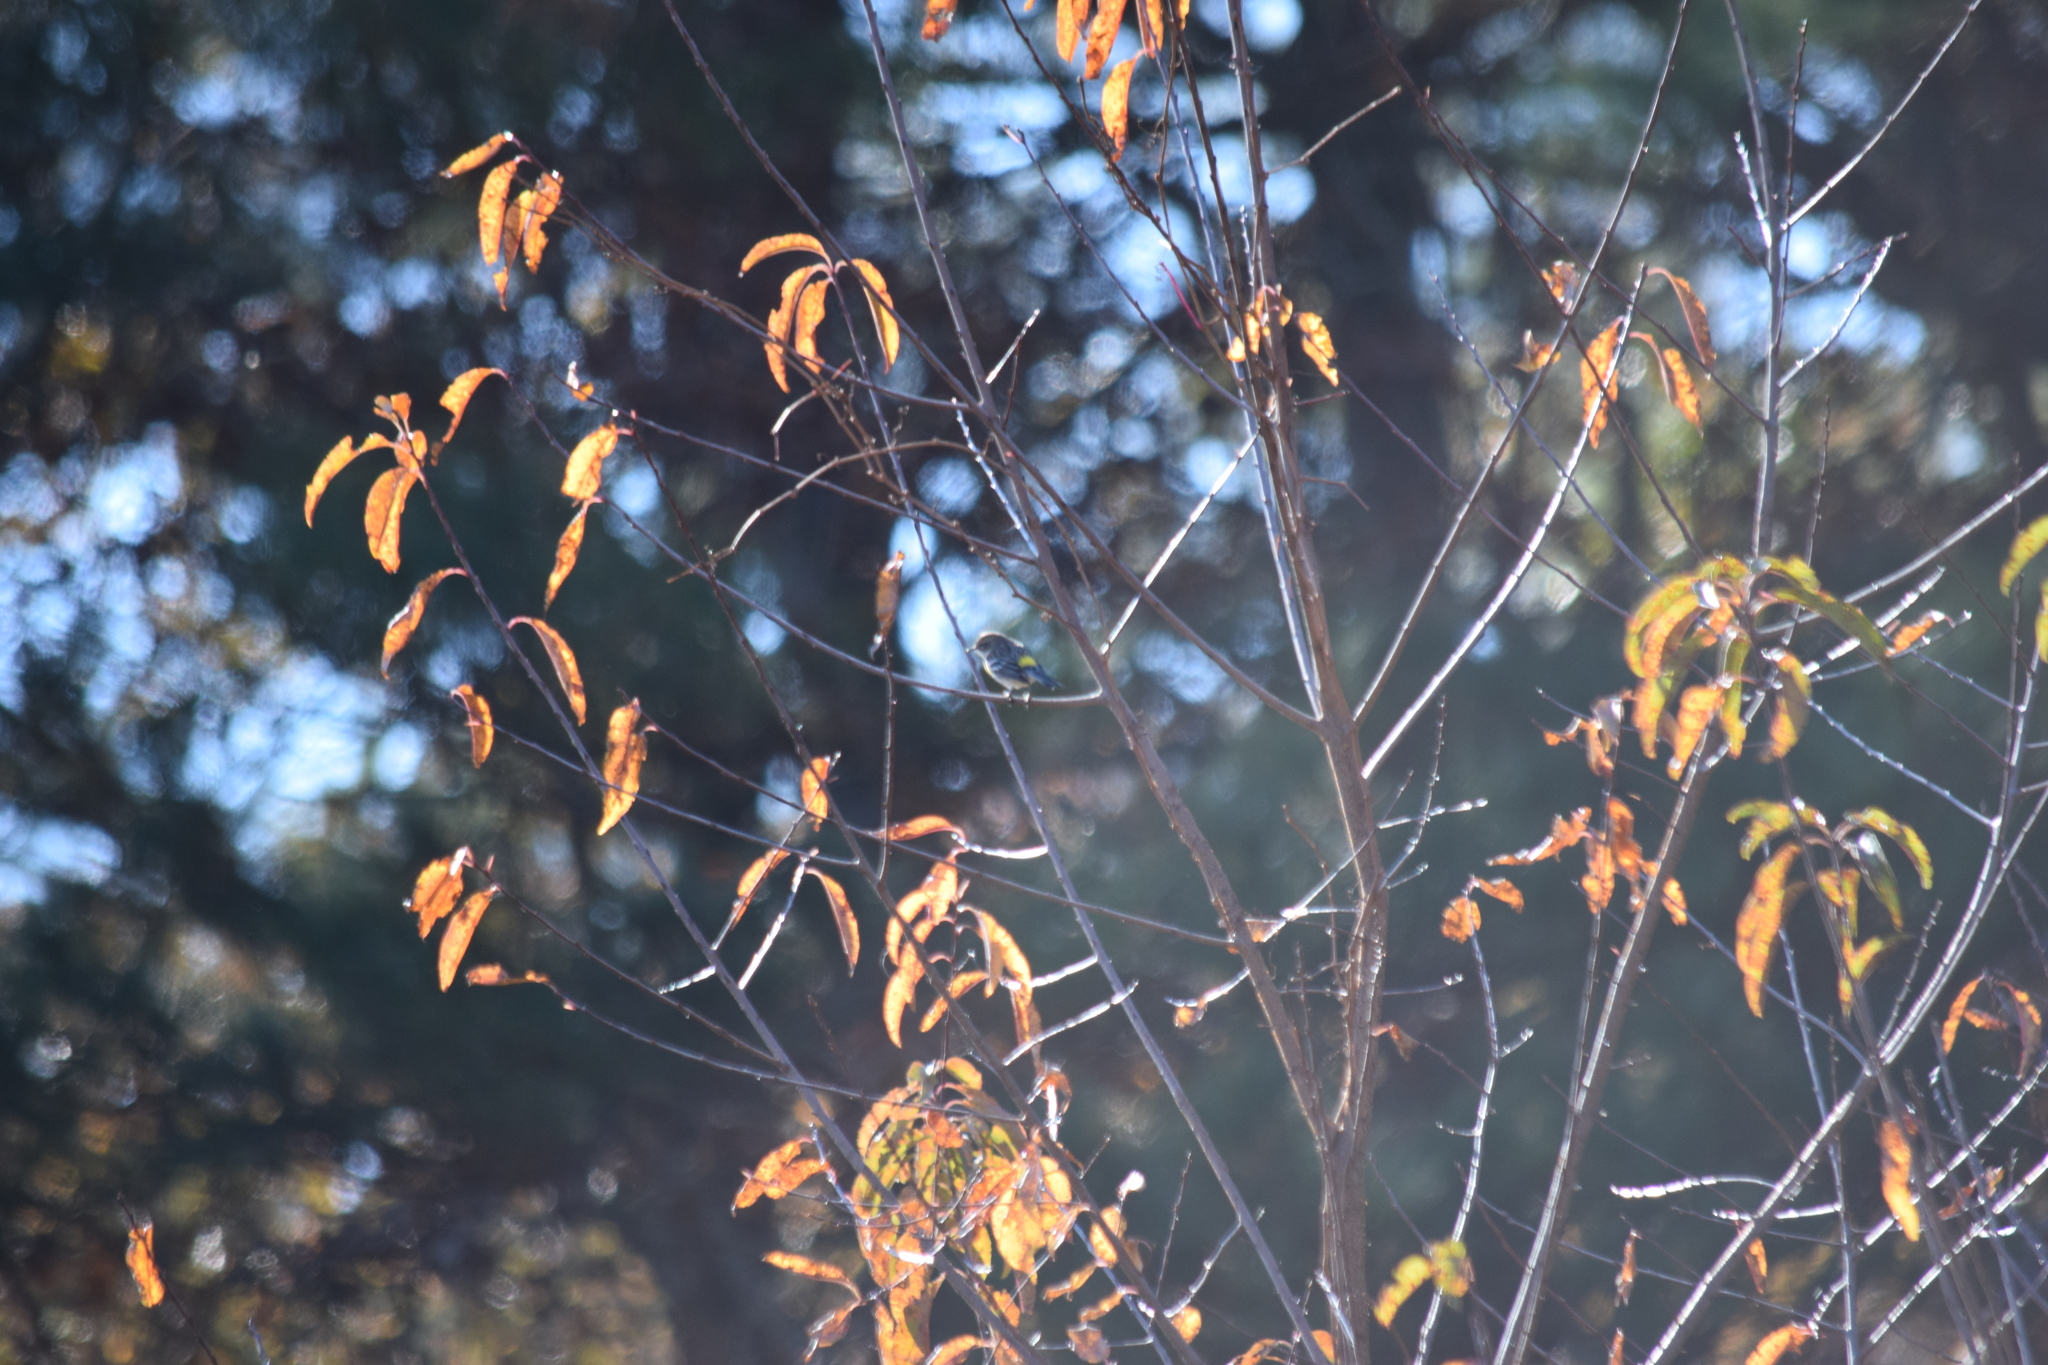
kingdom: Animalia
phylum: Chordata
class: Aves
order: Passeriformes
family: Parulidae
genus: Setophaga
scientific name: Setophaga coronata
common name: Myrtle warbler
